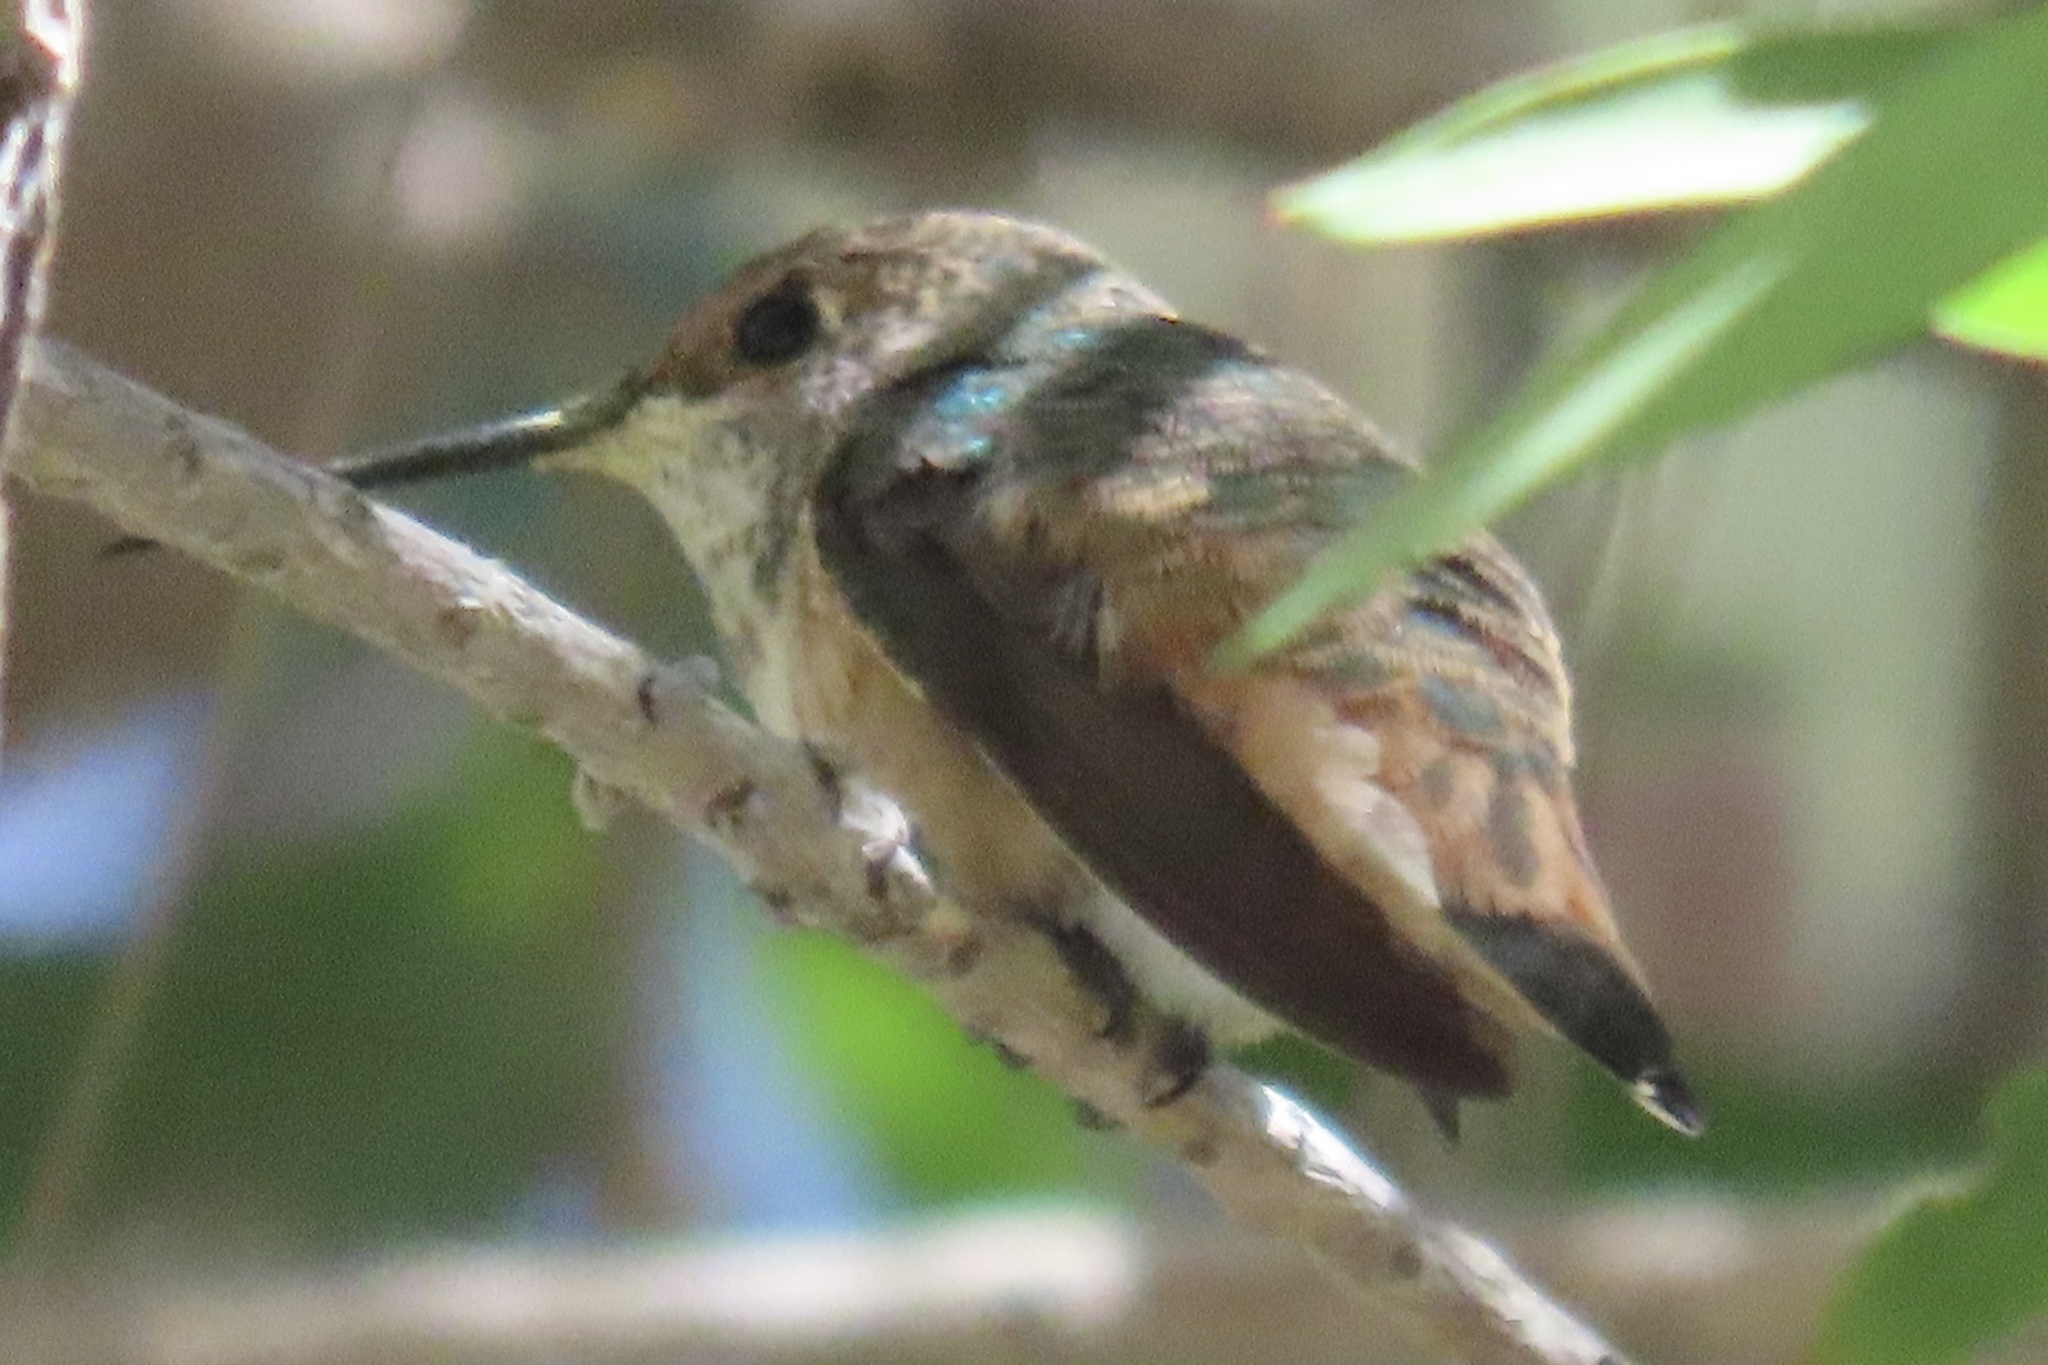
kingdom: Animalia
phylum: Chordata
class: Aves
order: Apodiformes
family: Trochilidae
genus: Selasphorus
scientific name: Selasphorus
